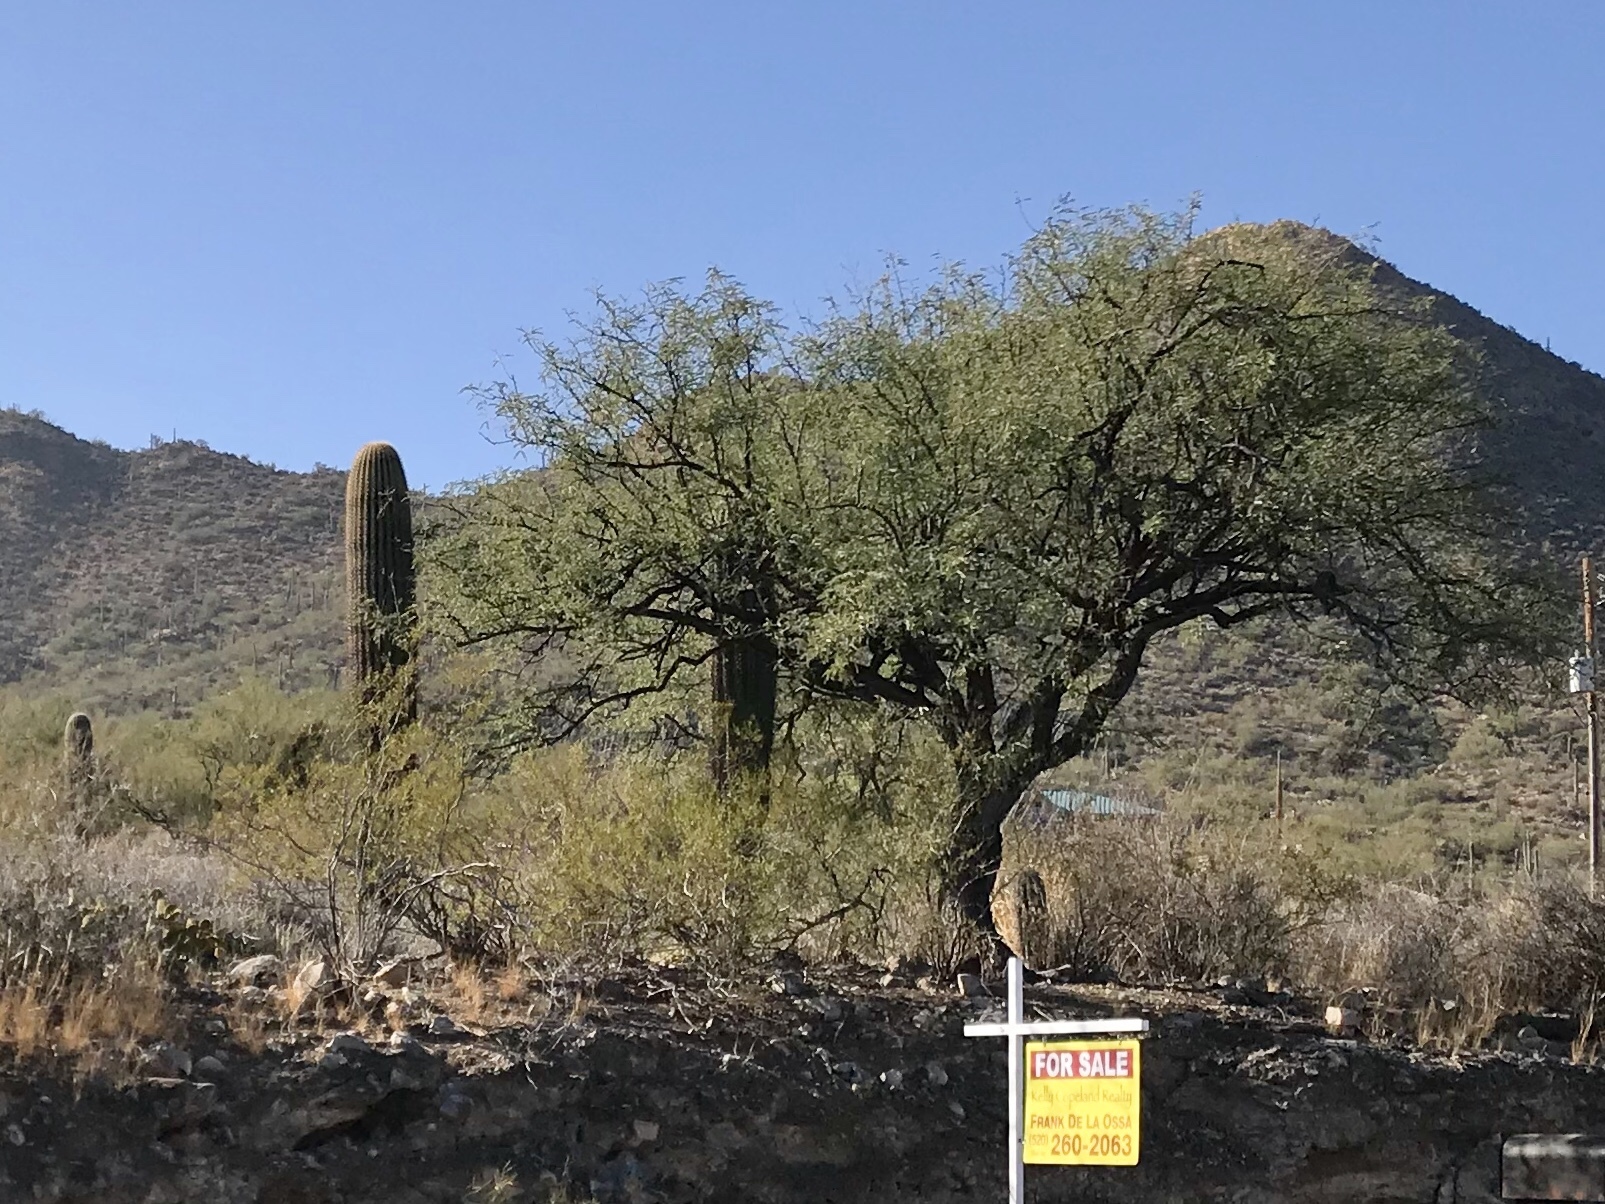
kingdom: Plantae
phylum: Tracheophyta
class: Magnoliopsida
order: Caryophyllales
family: Cactaceae
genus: Carnegiea
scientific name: Carnegiea gigantea
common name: Saguaro
